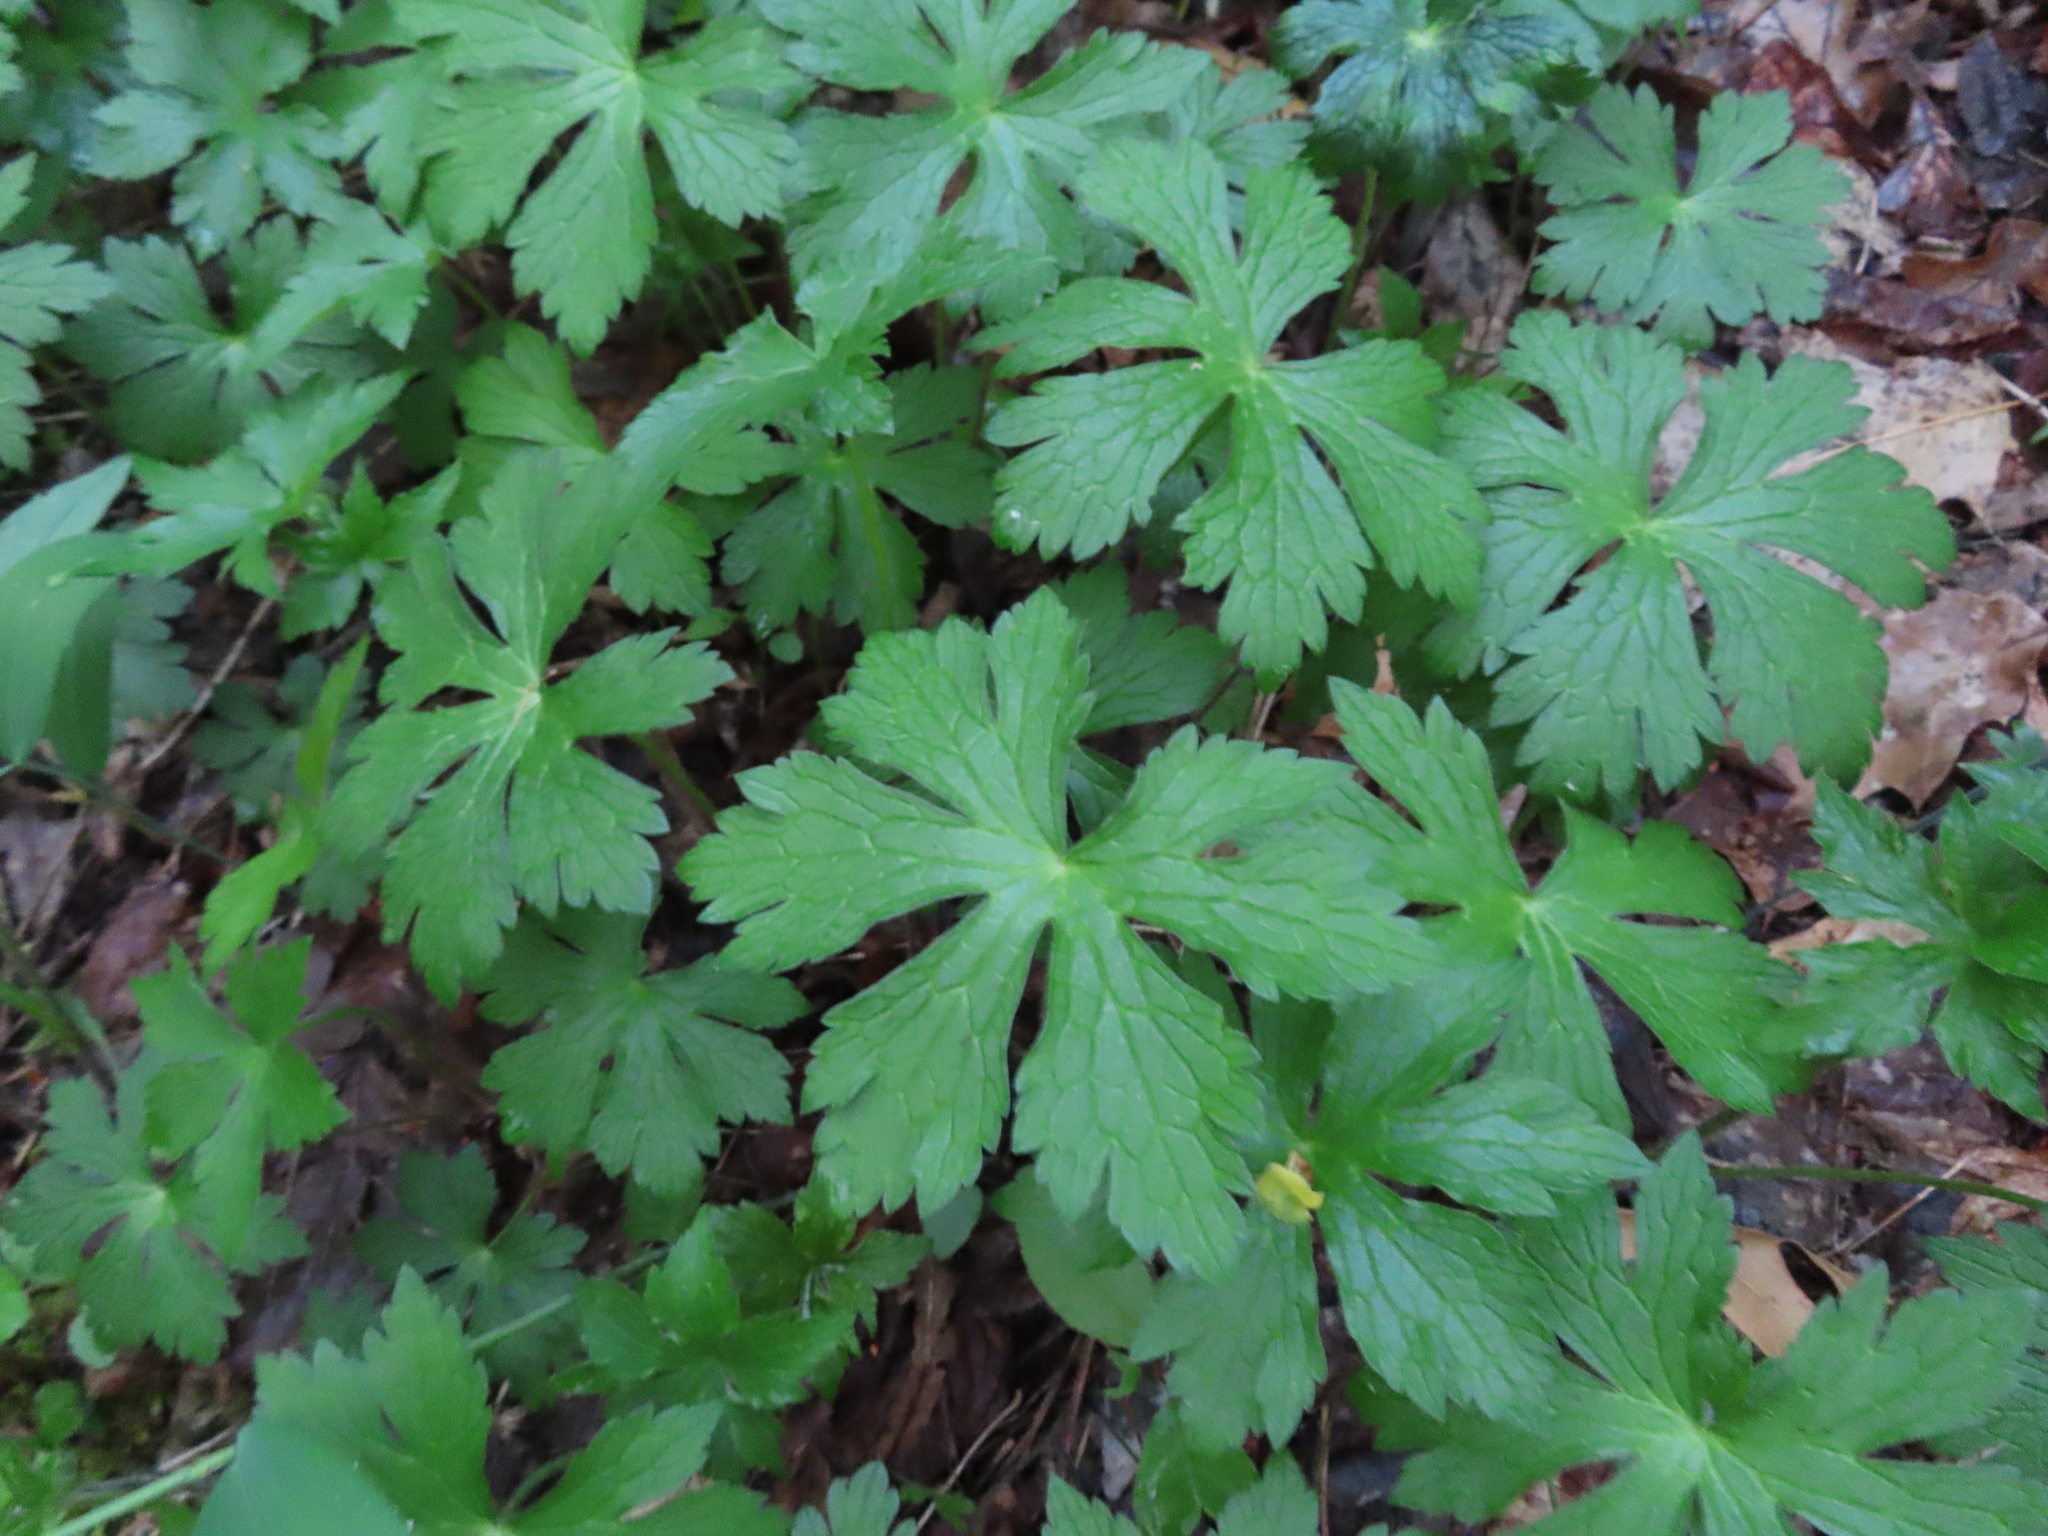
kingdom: Plantae
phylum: Tracheophyta
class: Magnoliopsida
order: Geraniales
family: Geraniaceae
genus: Geranium
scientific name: Geranium maculatum
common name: Spotted geranium
